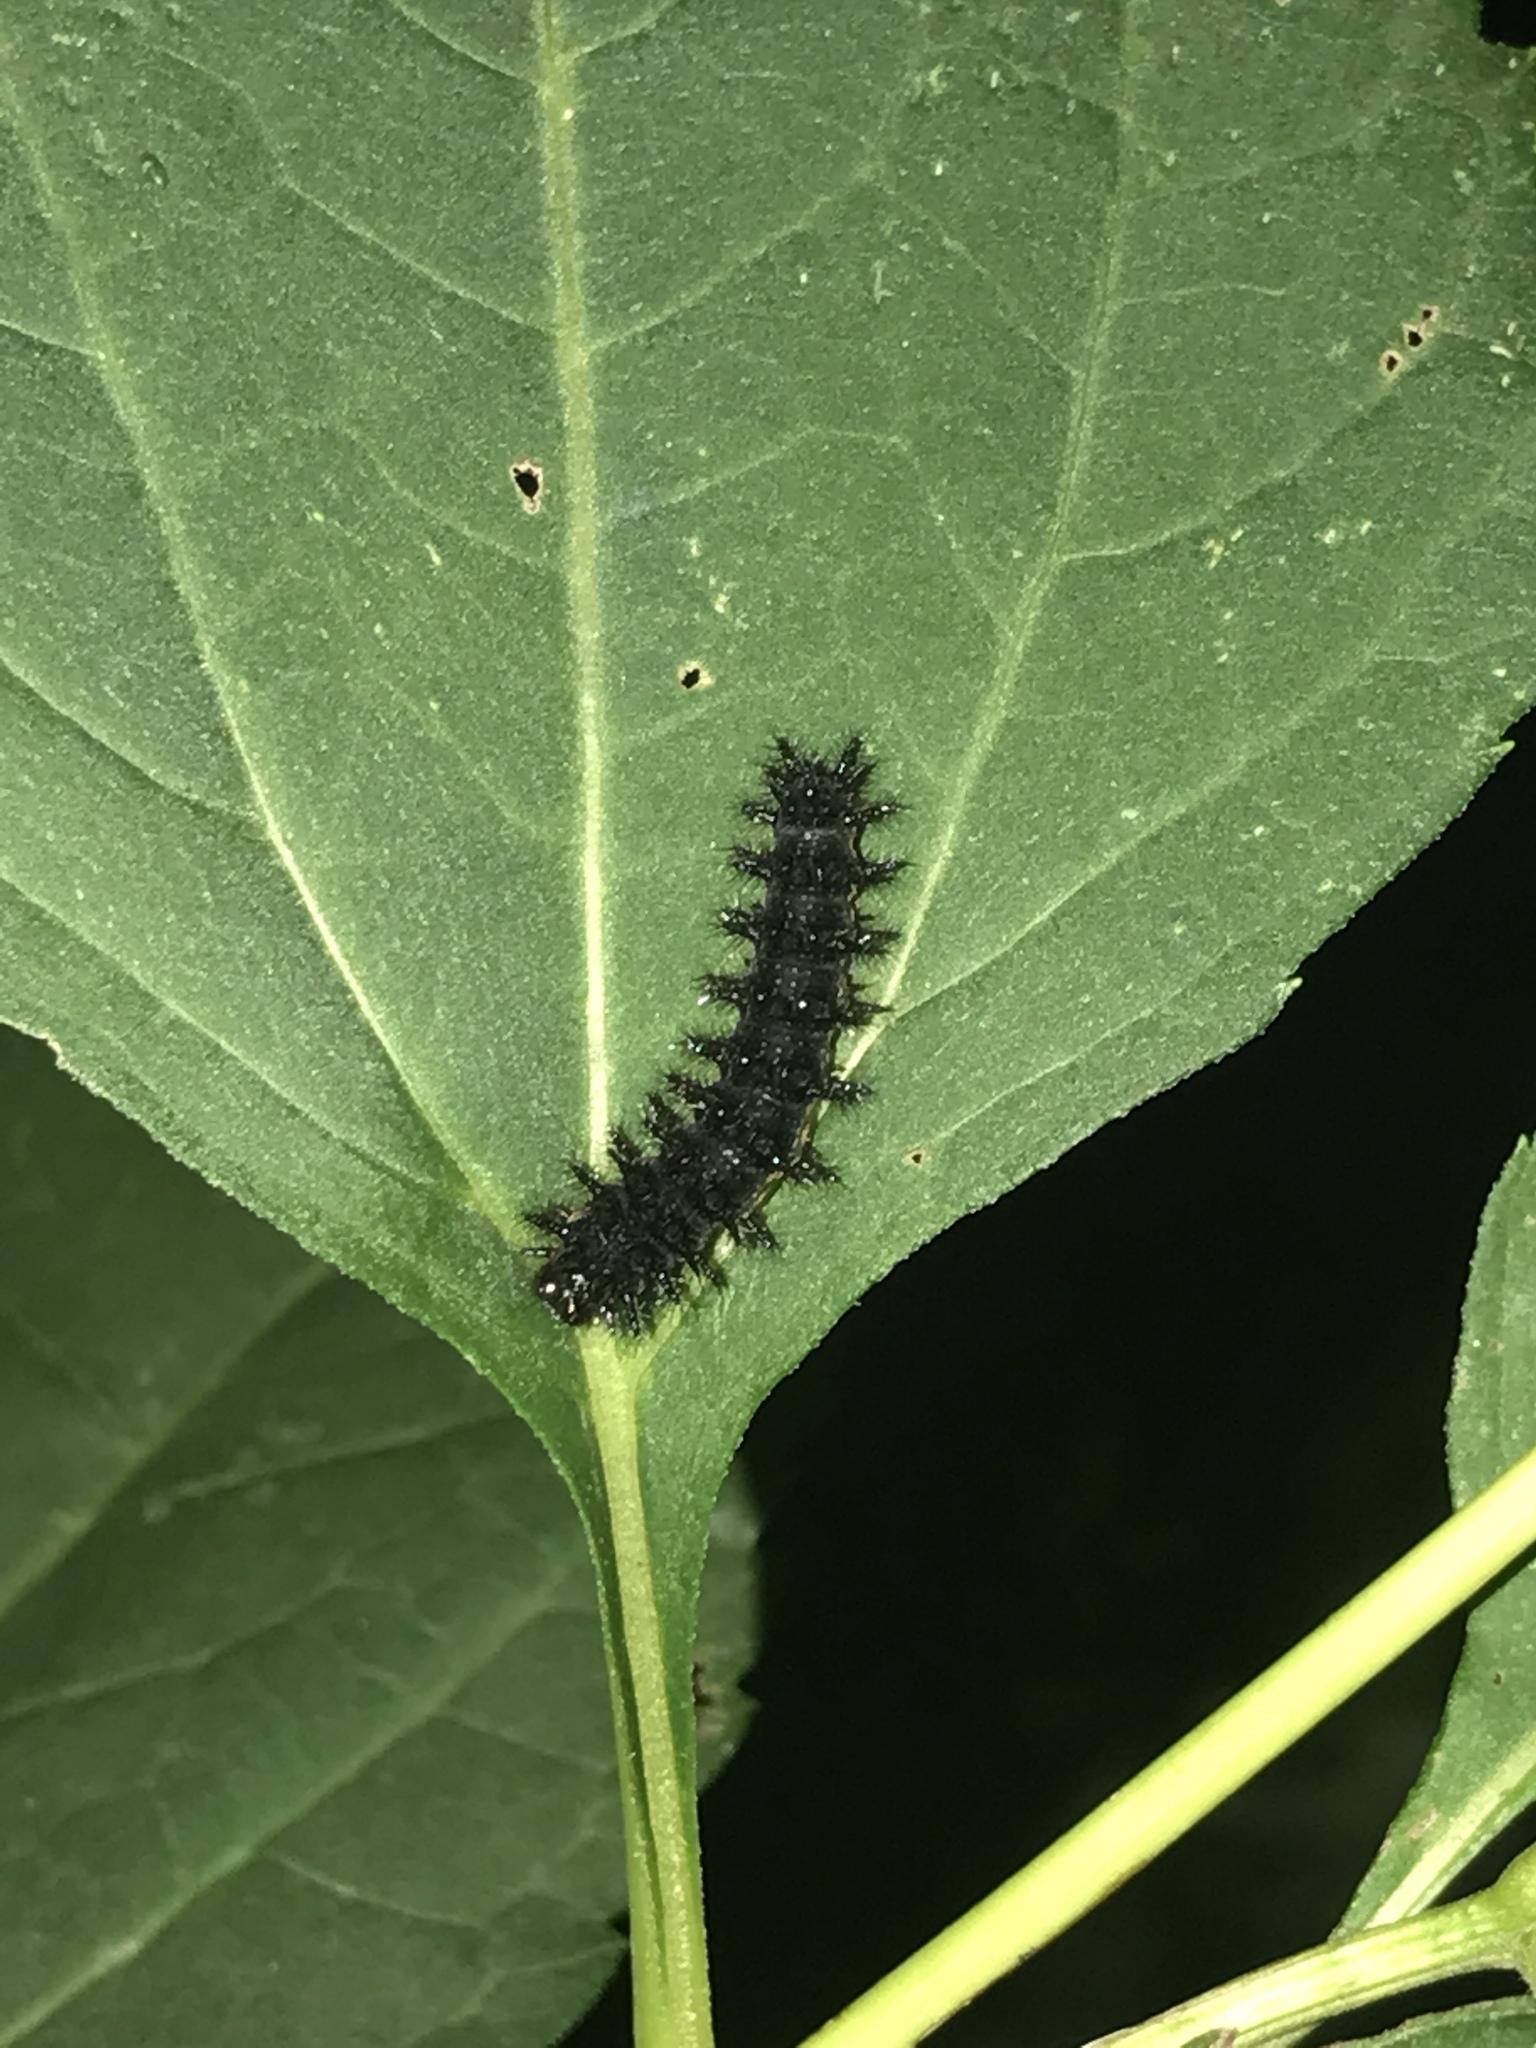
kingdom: Animalia
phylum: Arthropoda
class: Insecta
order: Lepidoptera
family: Nymphalidae
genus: Vanessa
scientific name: Vanessa atalanta
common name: Red admiral
